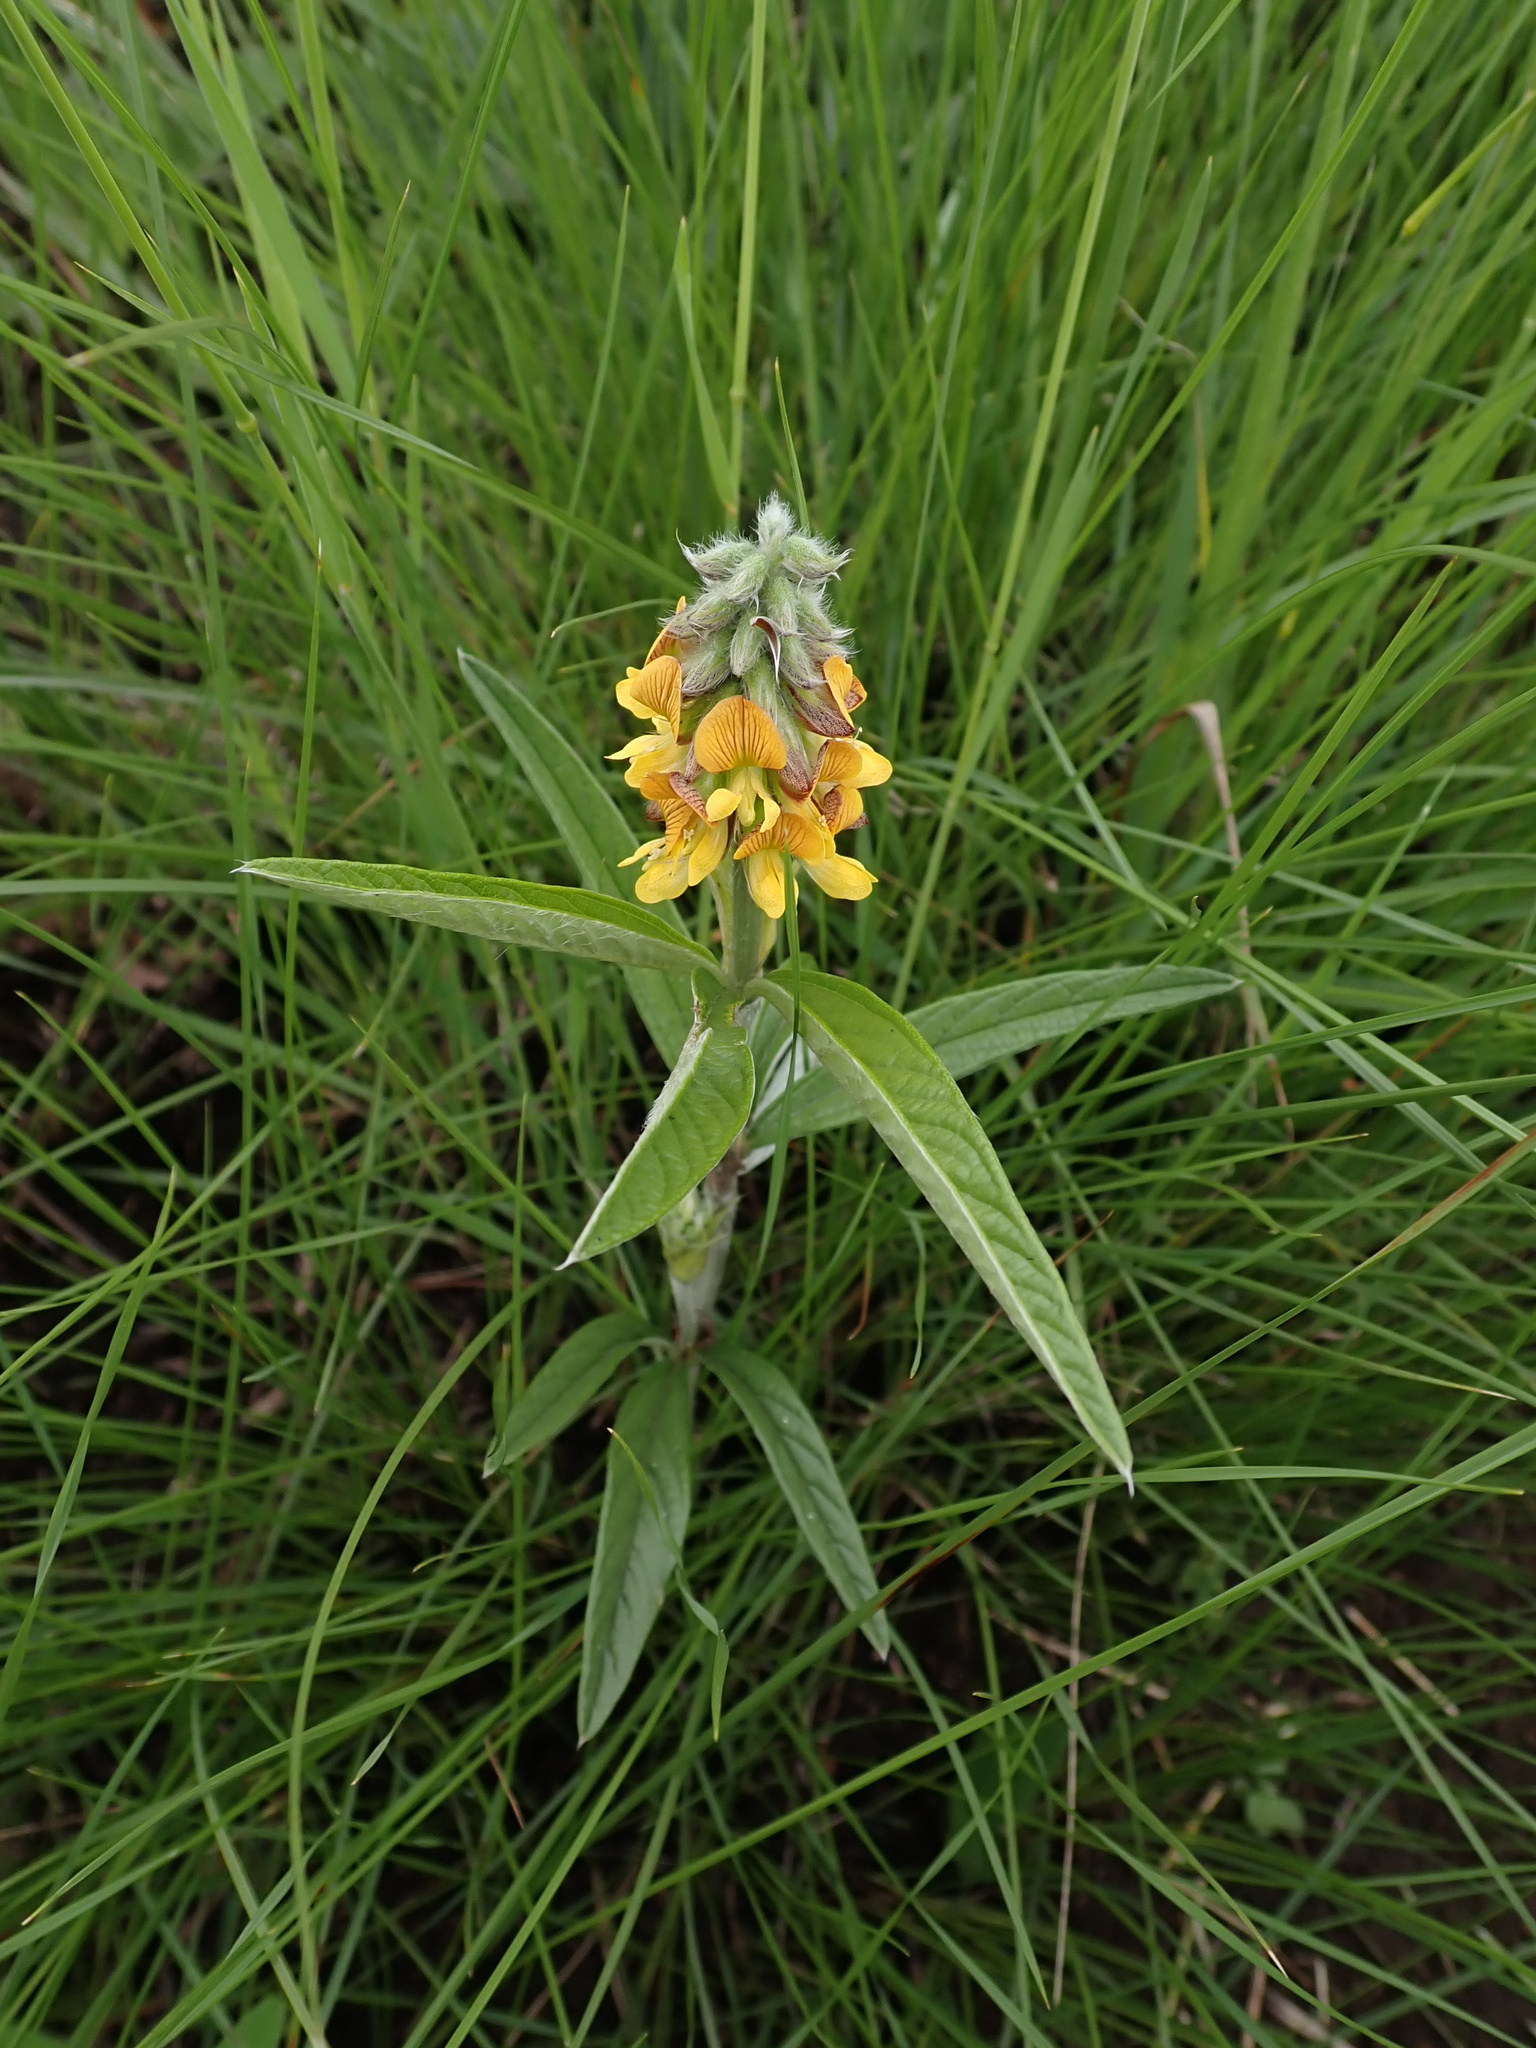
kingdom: Plantae
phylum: Tracheophyta
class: Magnoliopsida
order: Fabales
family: Fabaceae
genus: Eriosema
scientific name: Eriosema salignum
